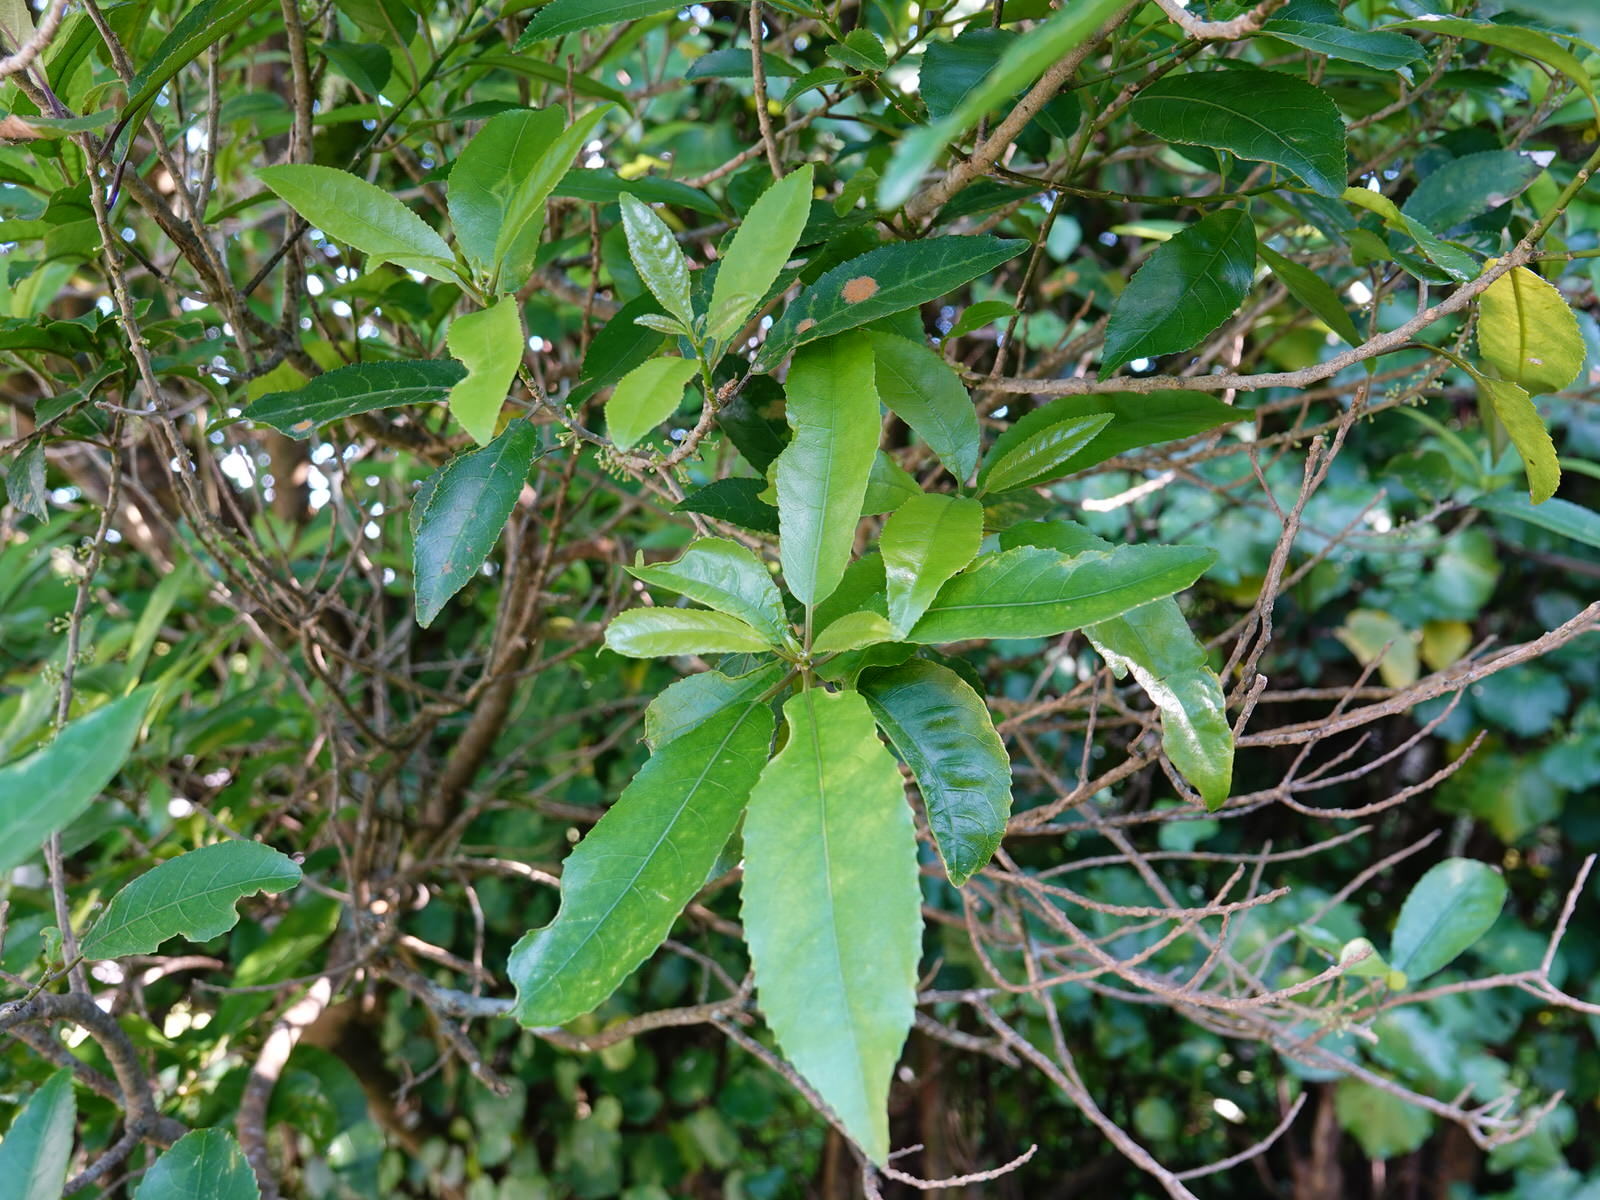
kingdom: Plantae
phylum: Tracheophyta
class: Magnoliopsida
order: Malpighiales
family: Violaceae
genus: Melicytus
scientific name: Melicytus ramiflorus
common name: Mahoe
